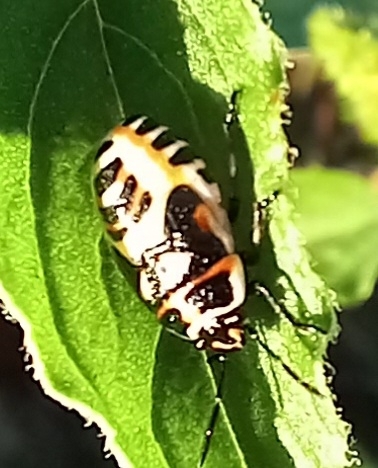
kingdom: Animalia
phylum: Arthropoda
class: Insecta
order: Hemiptera
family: Pentatomidae
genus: Eurydema
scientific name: Eurydema ornata
